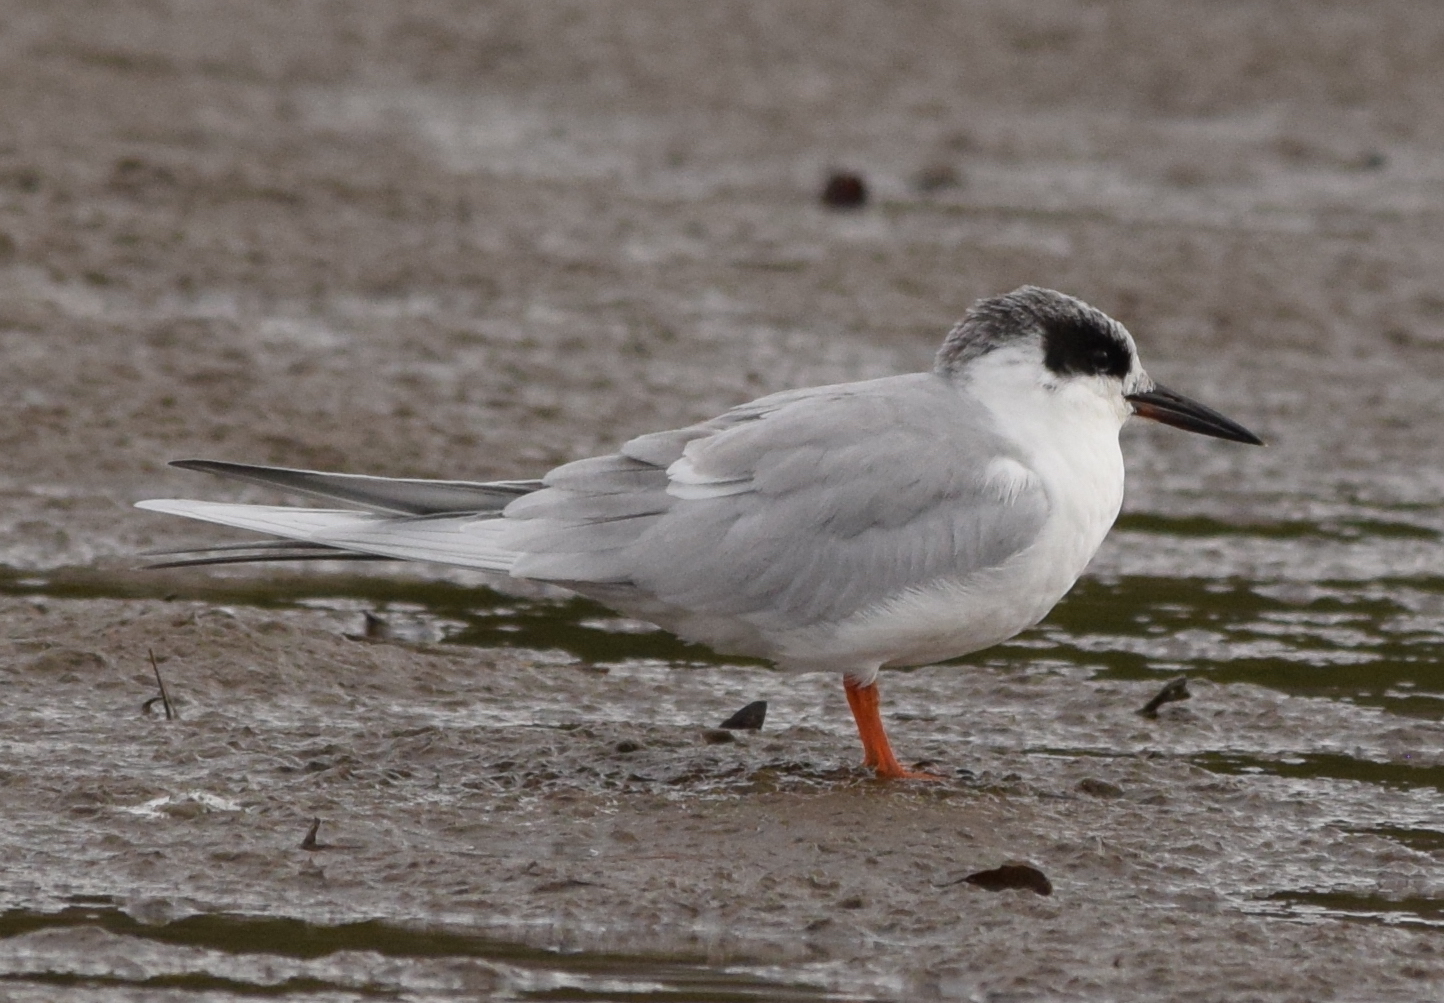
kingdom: Animalia
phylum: Chordata
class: Aves
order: Charadriiformes
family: Laridae
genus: Sterna
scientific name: Sterna forsteri
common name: Forster's tern
